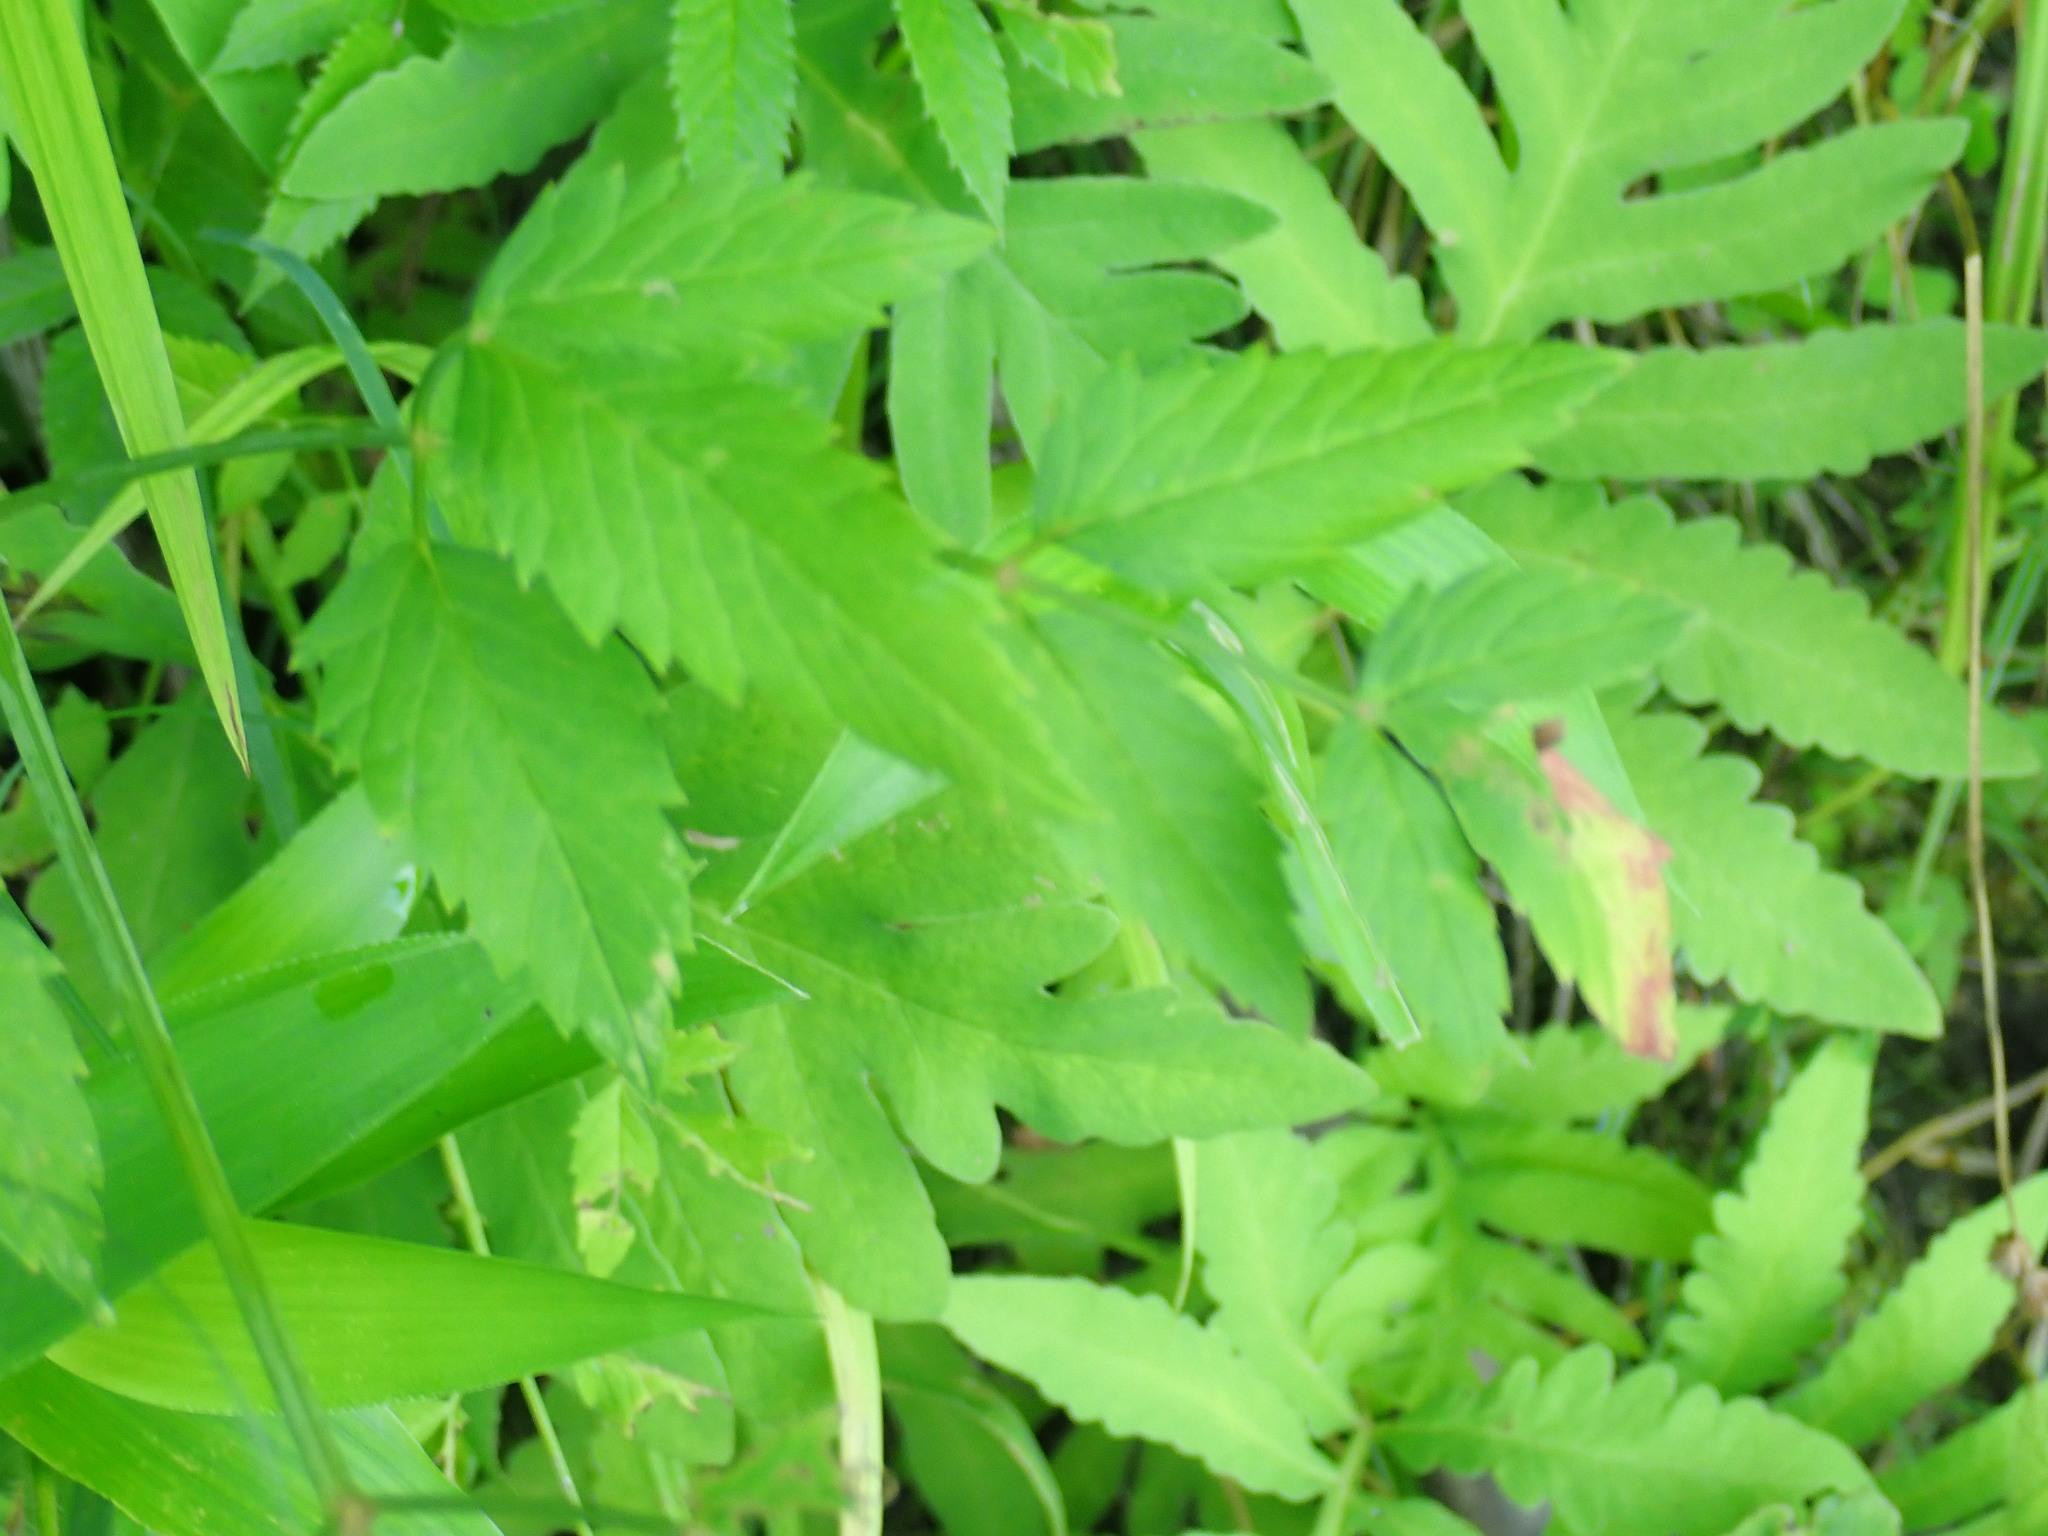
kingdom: Plantae
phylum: Tracheophyta
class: Magnoliopsida
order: Apiales
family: Apiaceae
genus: Cicuta
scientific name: Cicuta maculata
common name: Spotted cowbane
